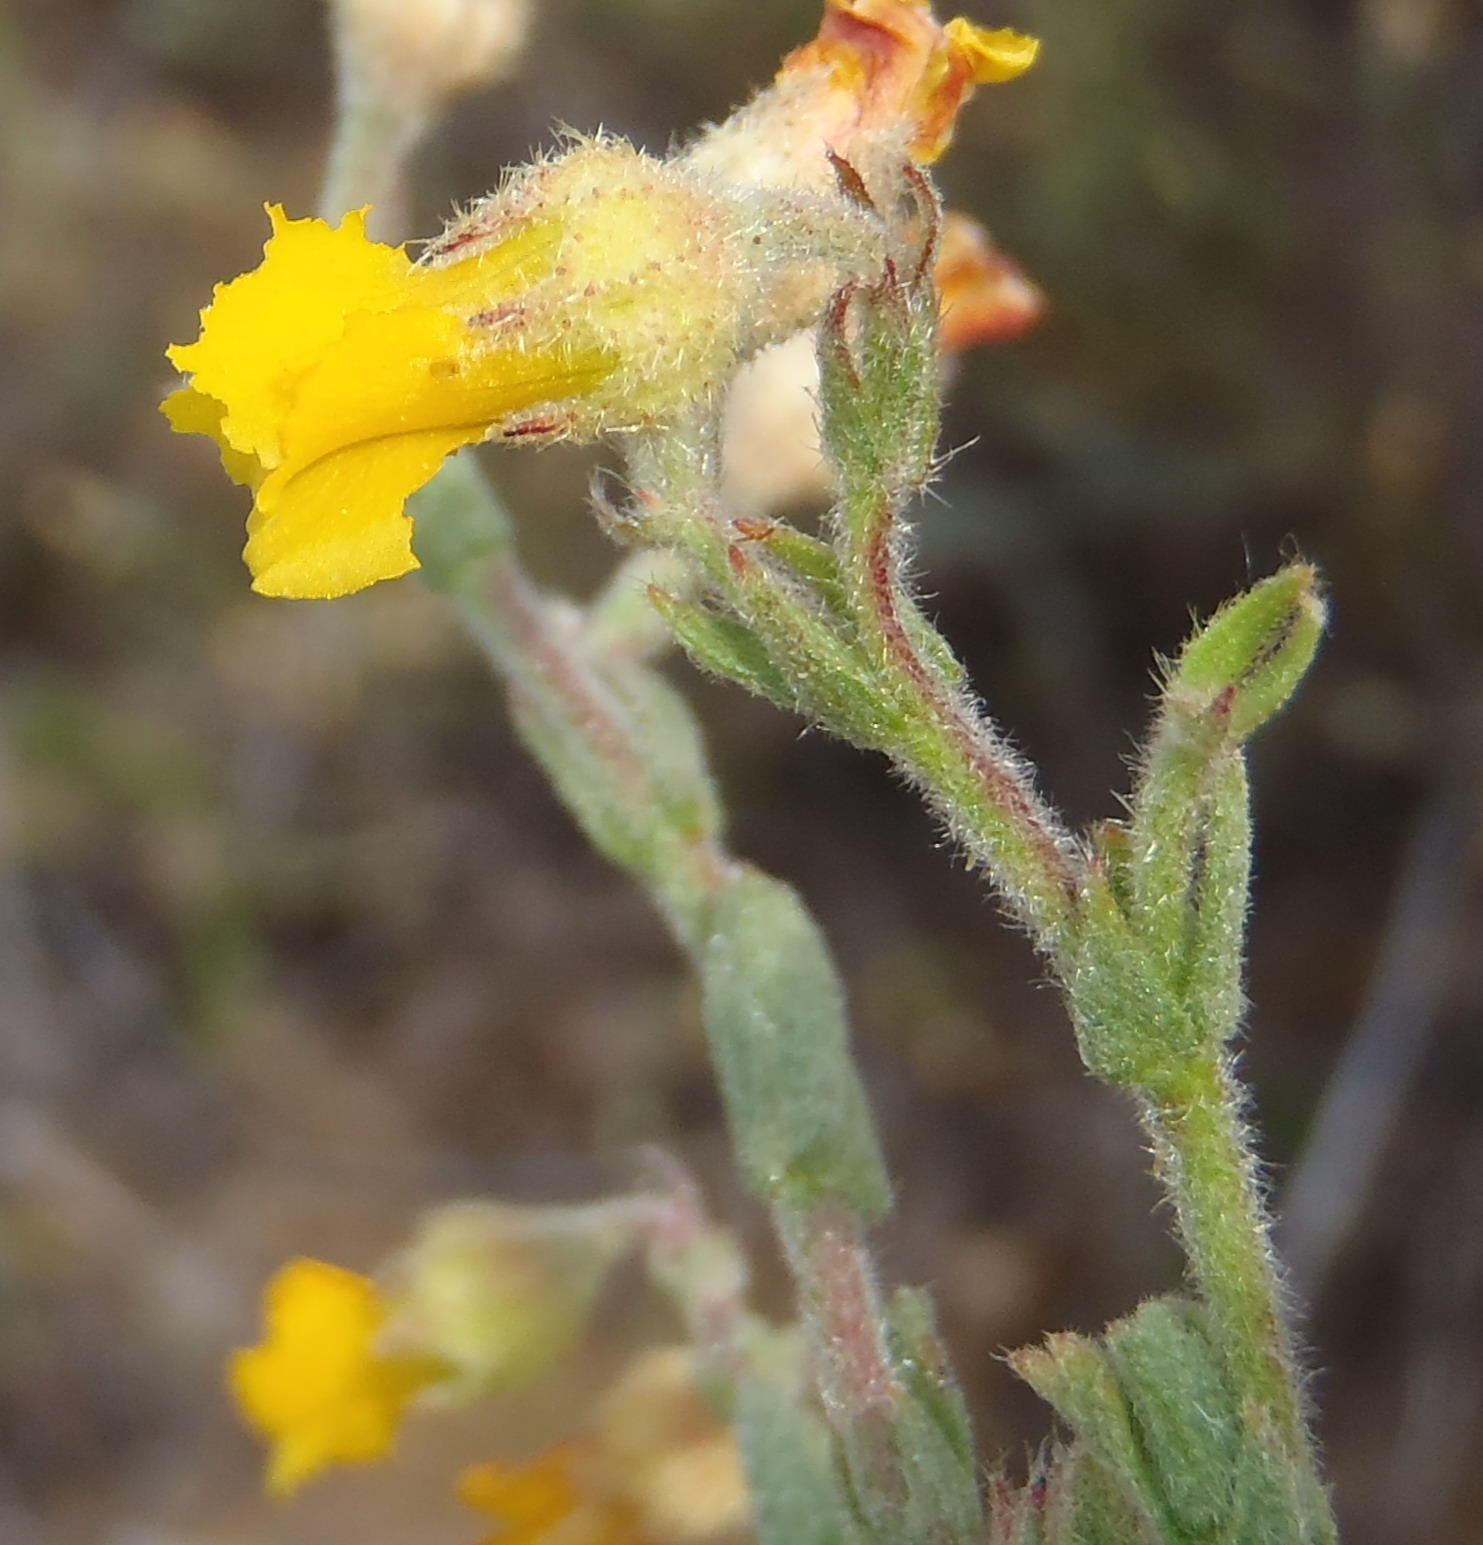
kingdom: Plantae
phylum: Tracheophyta
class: Magnoliopsida
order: Malvales
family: Malvaceae
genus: Hermannia
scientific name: Hermannia stipulacea
